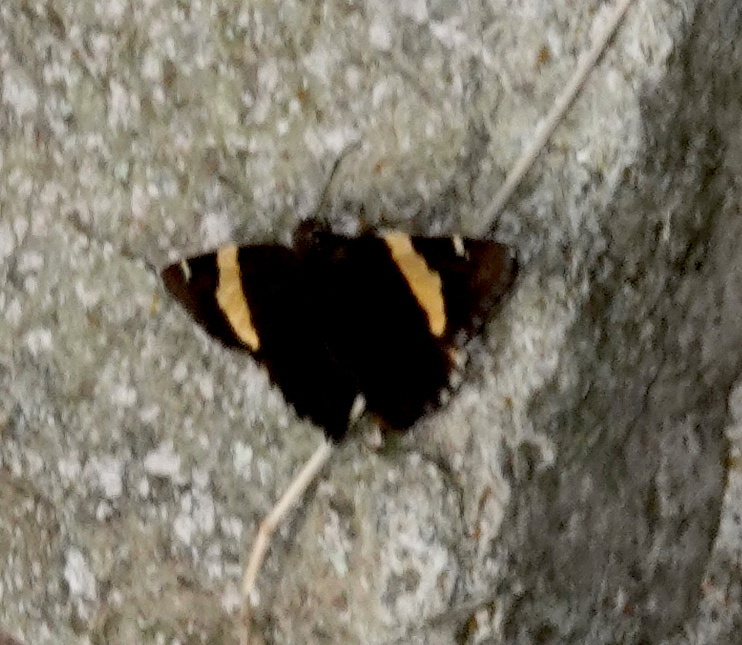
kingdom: Animalia
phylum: Arthropoda
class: Arachnida
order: Scorpiones
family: Bothriuridae
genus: Telegonus
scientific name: Telegonus cellus
